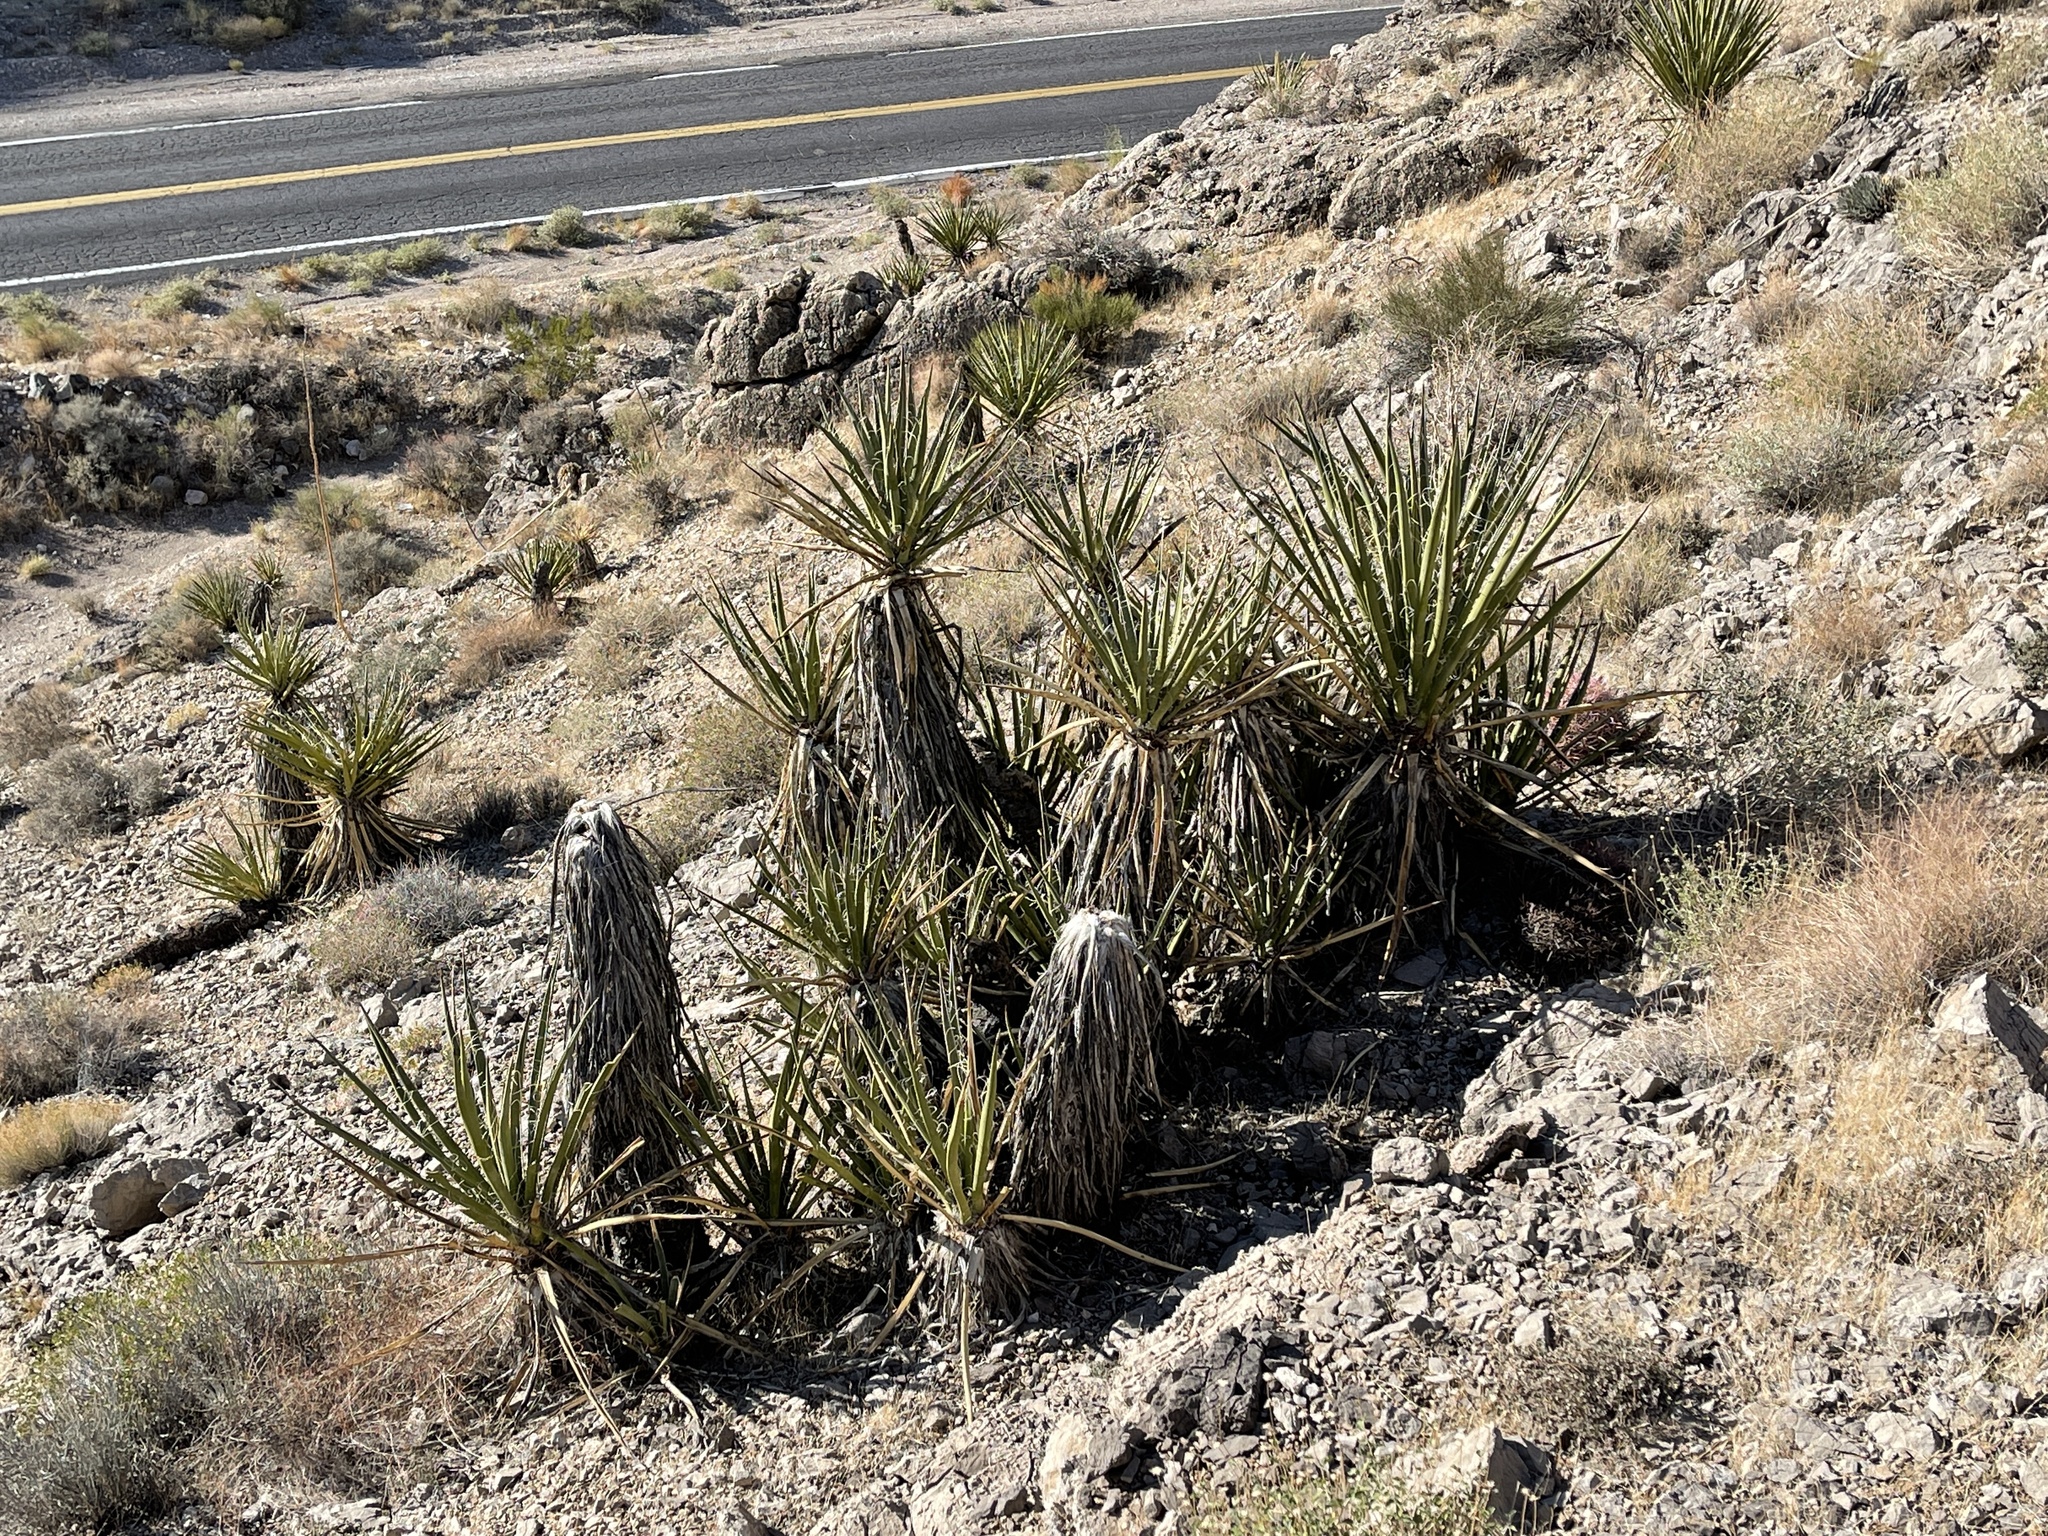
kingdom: Plantae
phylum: Tracheophyta
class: Liliopsida
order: Asparagales
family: Asparagaceae
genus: Yucca
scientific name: Yucca schidigera
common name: Mojave yucca
